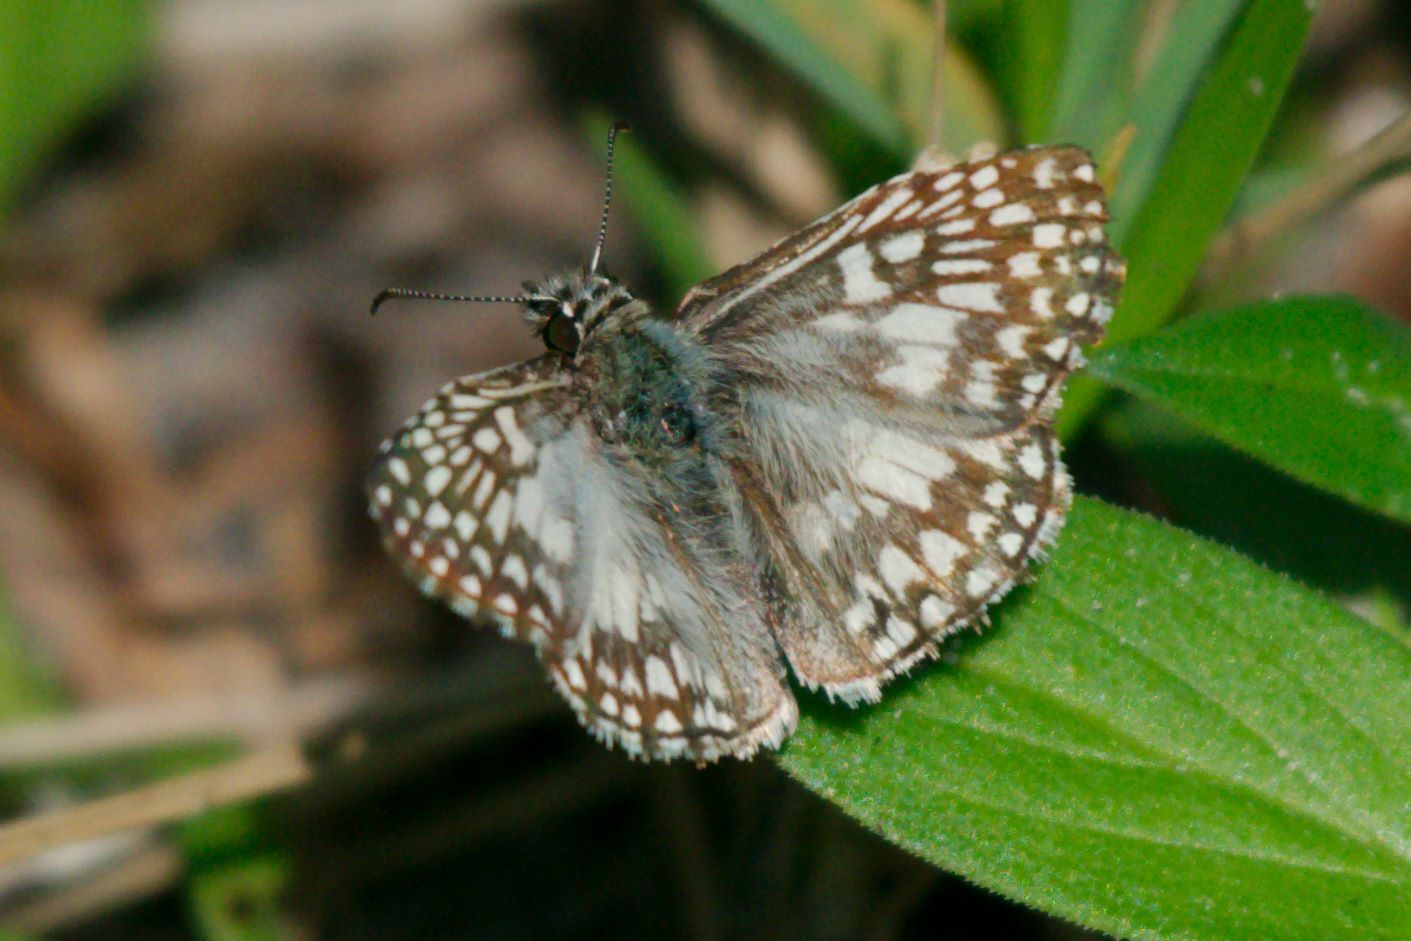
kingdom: Animalia
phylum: Arthropoda
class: Insecta
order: Lepidoptera
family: Hesperiidae
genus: Pyrgus
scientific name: Pyrgus oileus
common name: Tropical checkered-skipper
